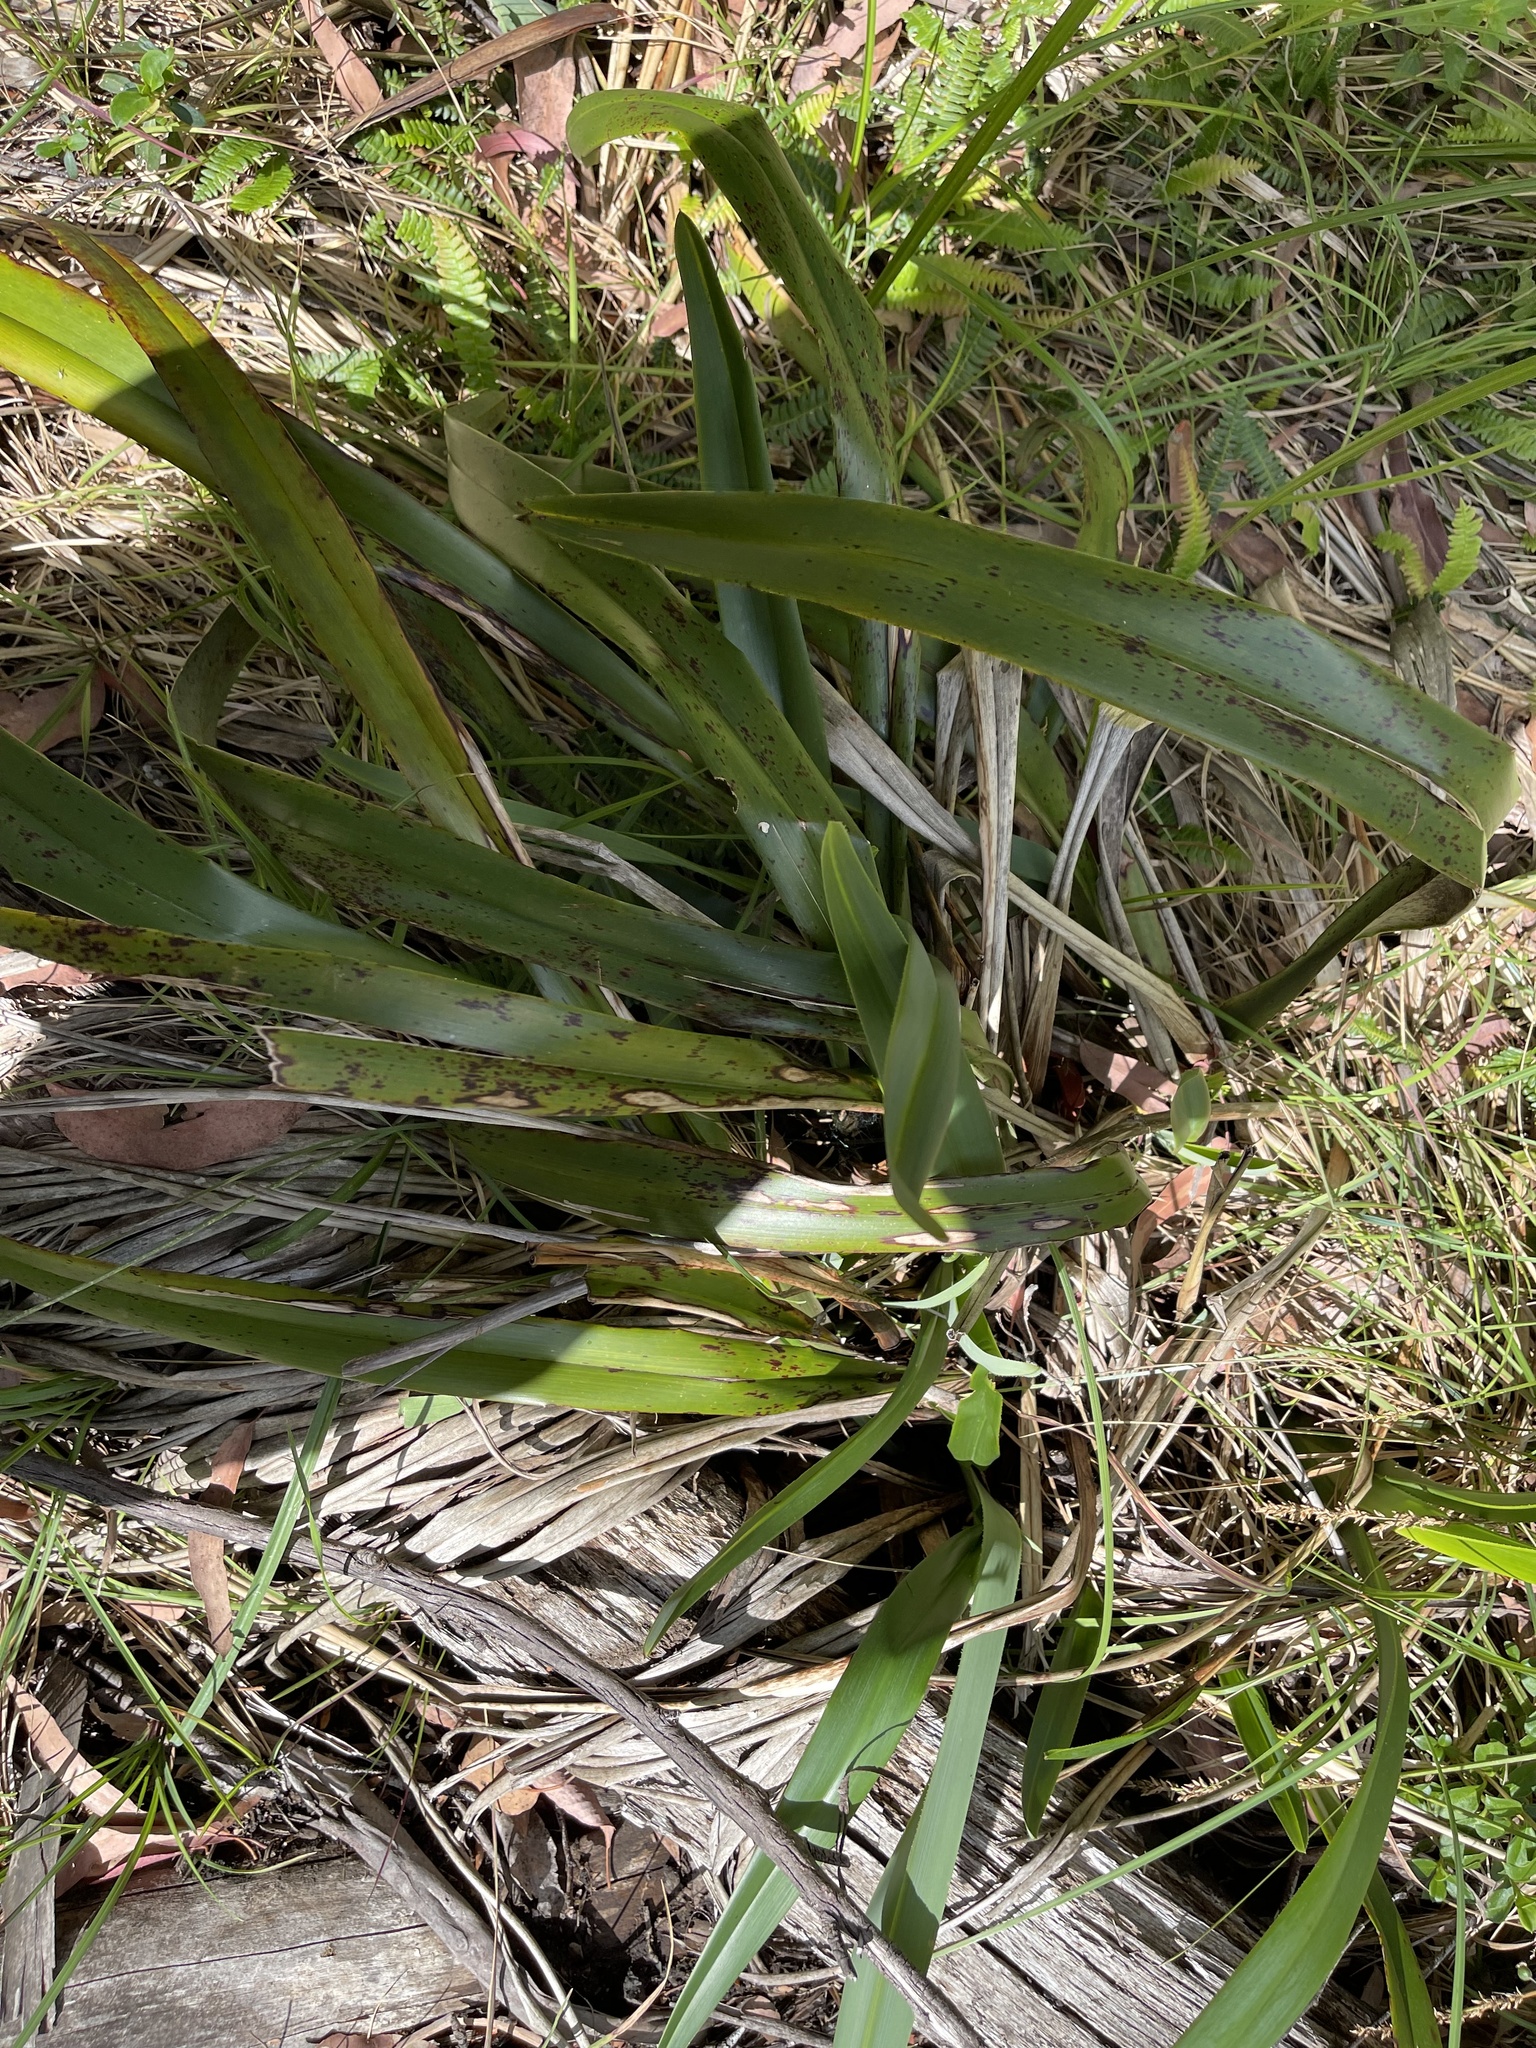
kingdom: Plantae
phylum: Tracheophyta
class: Liliopsida
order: Asparagales
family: Asphodelaceae
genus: Dianella
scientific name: Dianella tasmanica
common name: Tasman flax-lily
